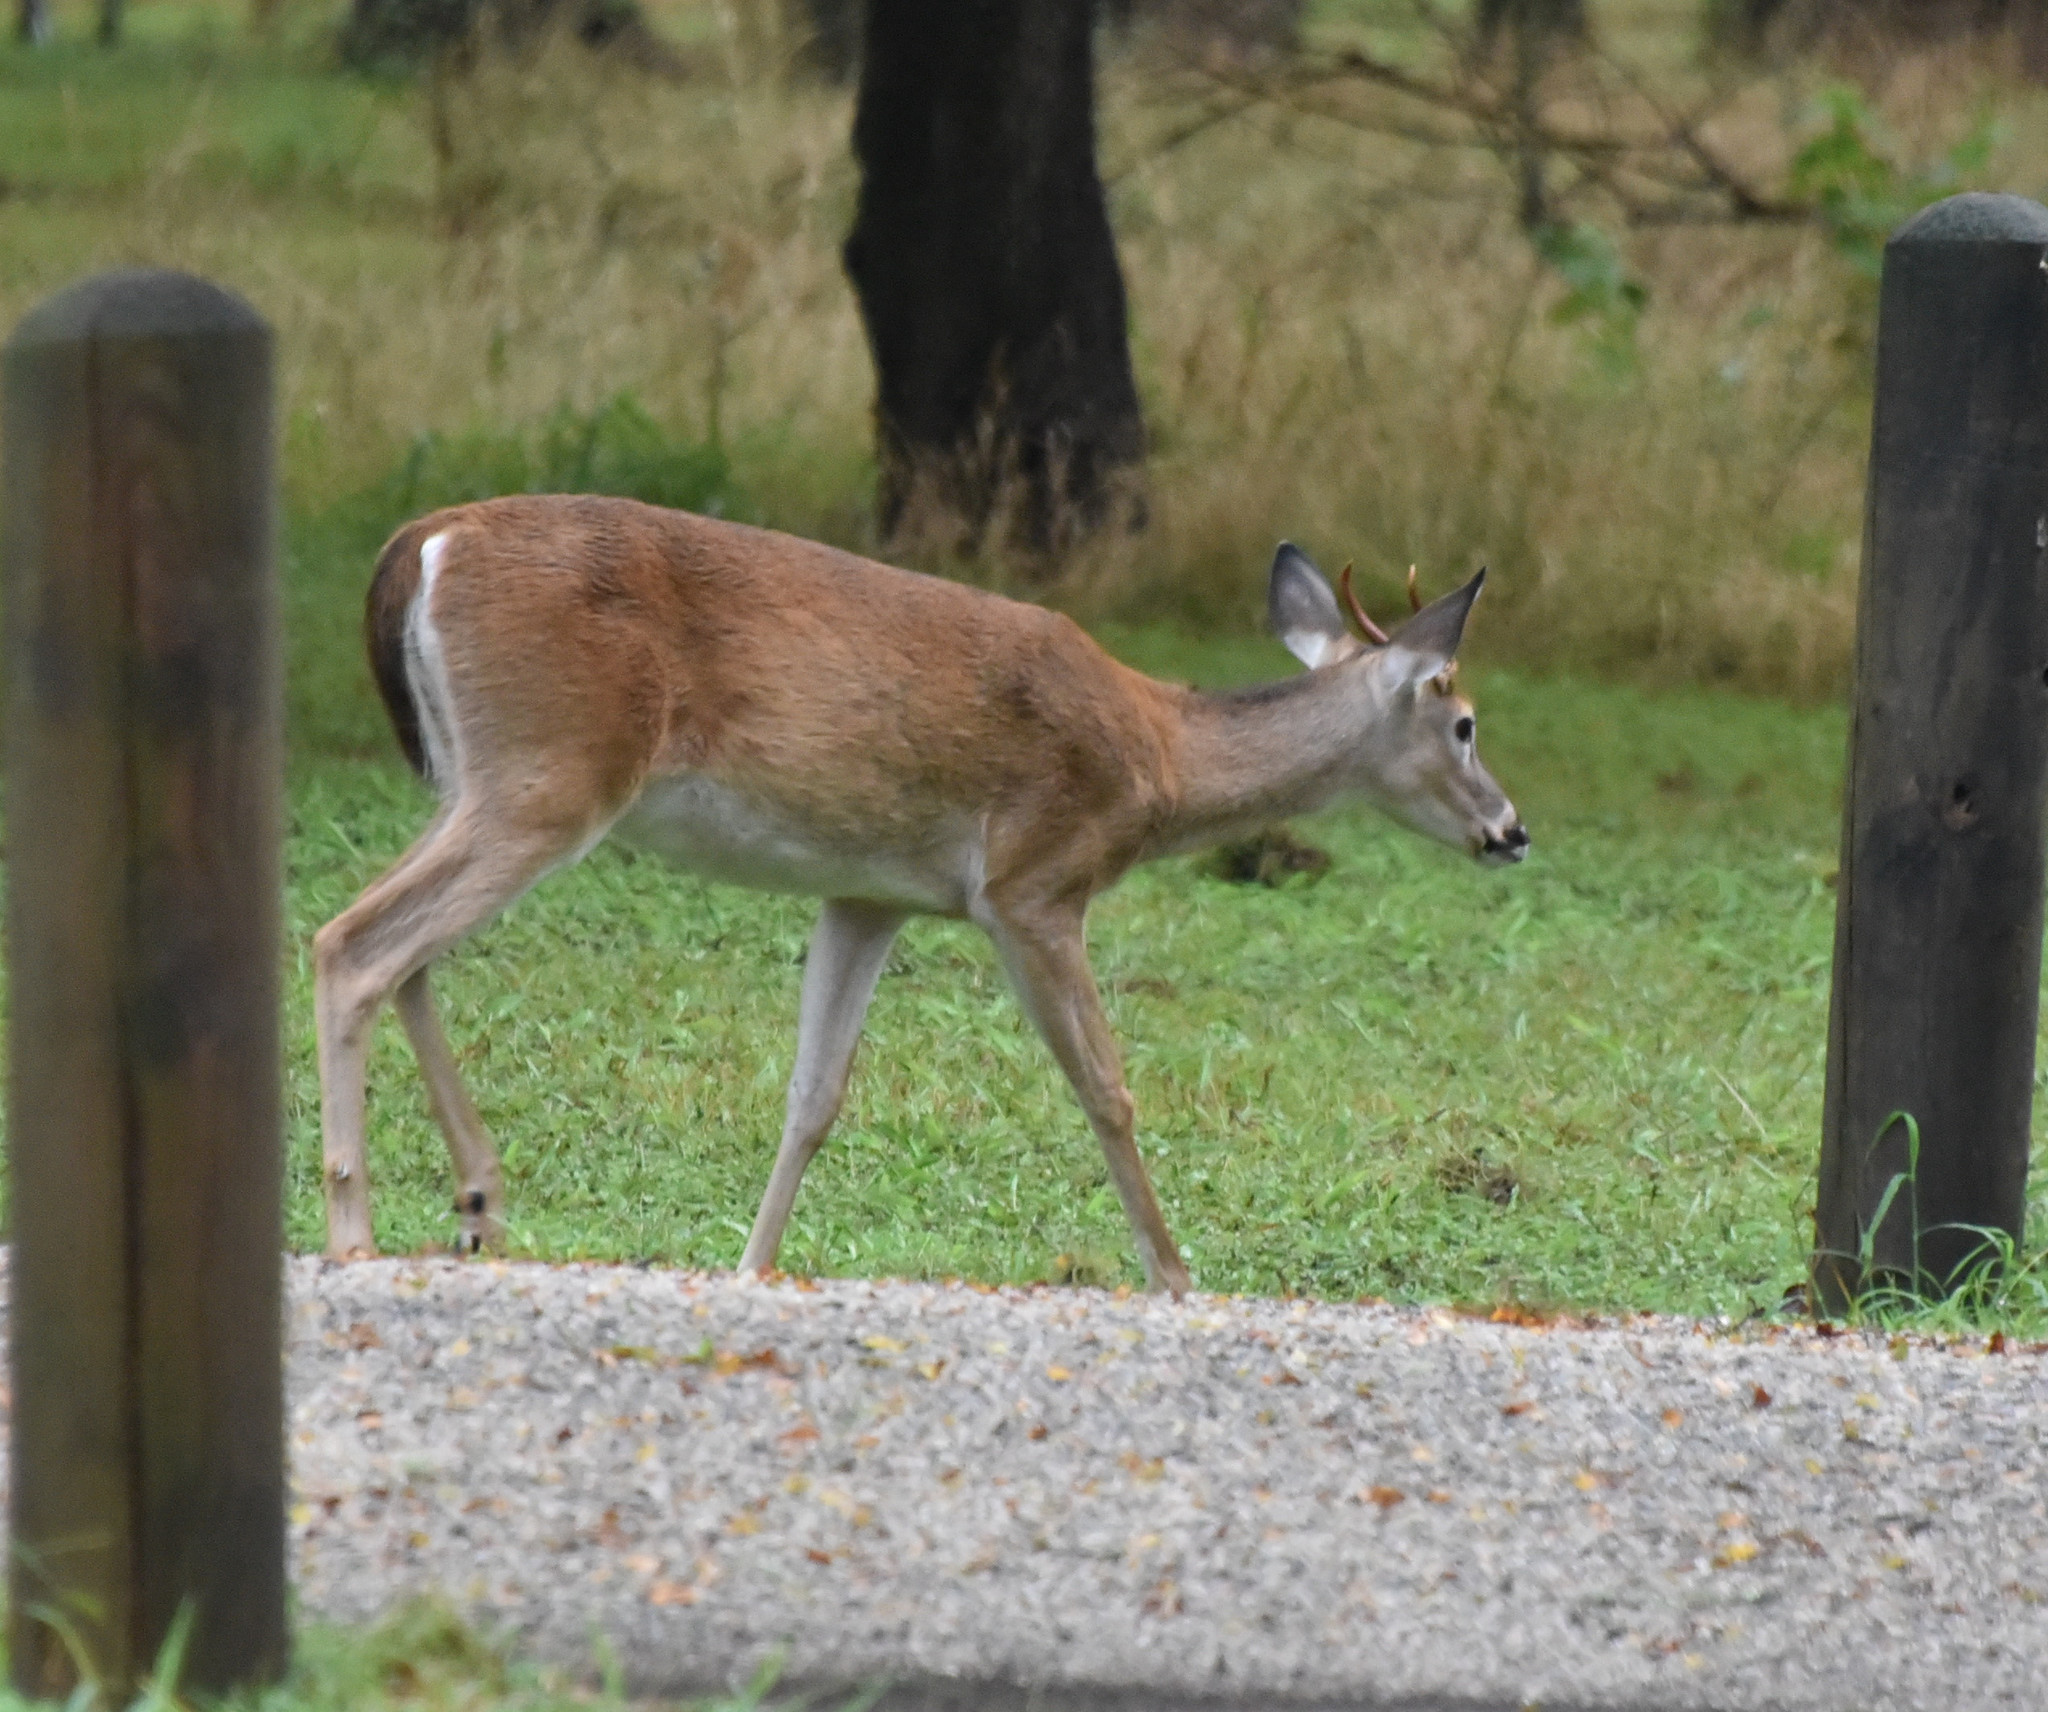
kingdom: Animalia
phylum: Chordata
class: Mammalia
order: Artiodactyla
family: Cervidae
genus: Odocoileus
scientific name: Odocoileus virginianus
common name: White-tailed deer
